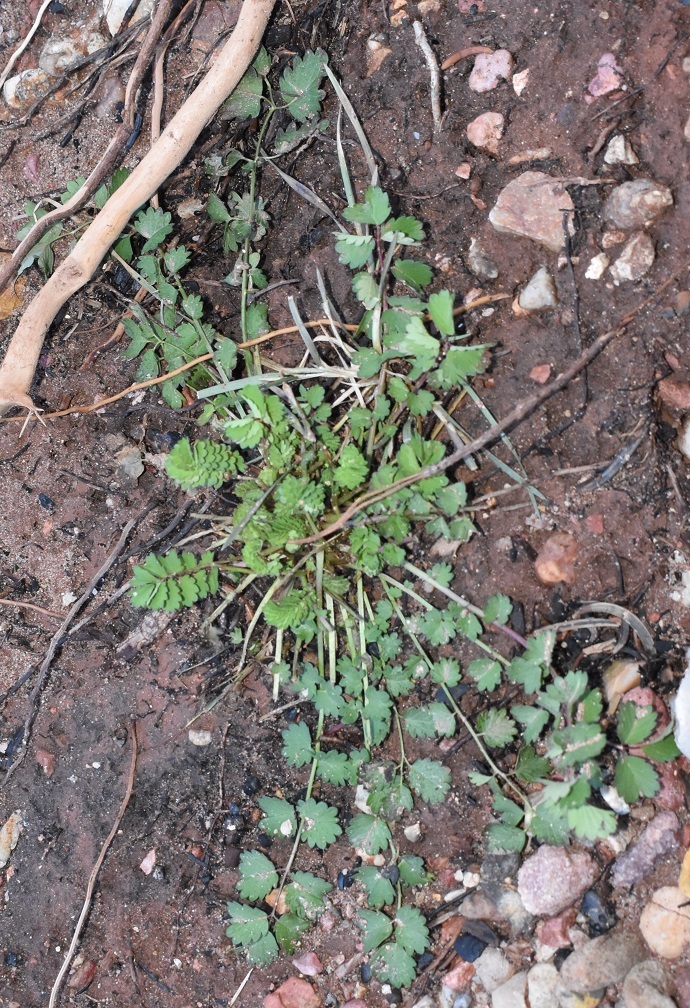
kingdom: Plantae
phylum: Tracheophyta
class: Magnoliopsida
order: Rosales
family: Rosaceae
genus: Poterium
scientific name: Poterium sanguisorba
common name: Salad burnet
